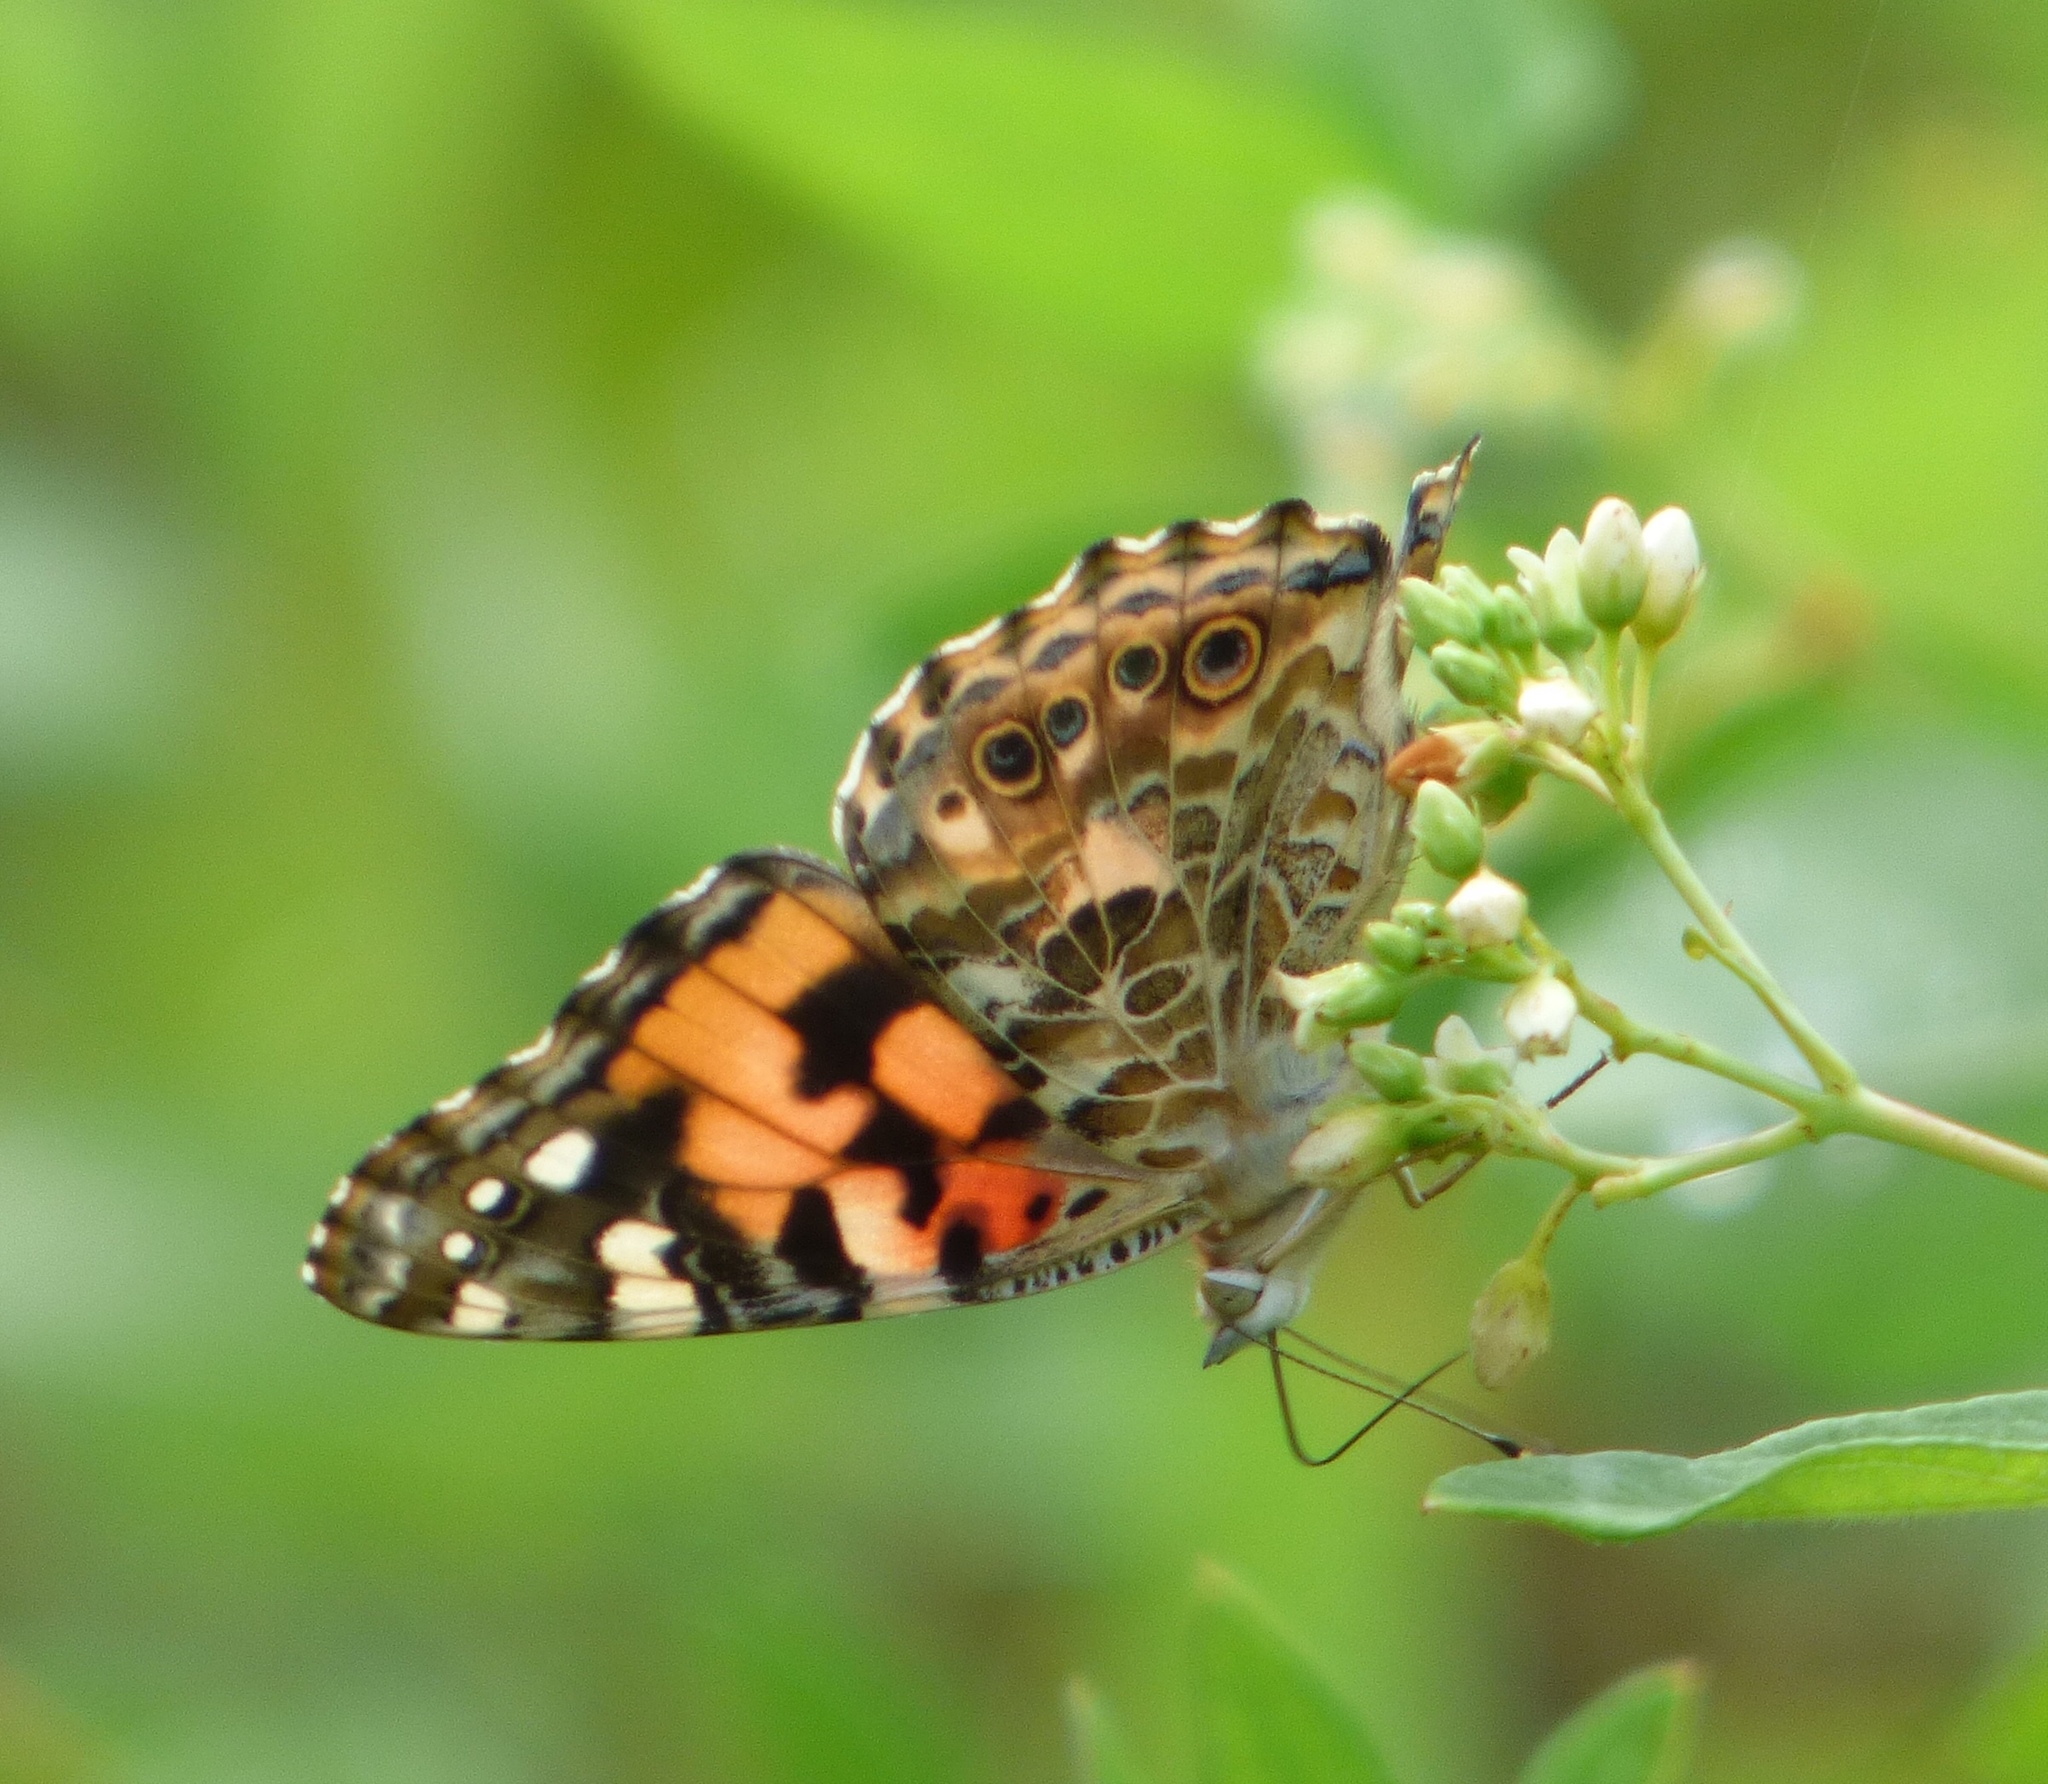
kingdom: Animalia
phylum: Arthropoda
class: Insecta
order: Lepidoptera
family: Nymphalidae
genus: Vanessa
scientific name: Vanessa cardui
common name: Painted lady
